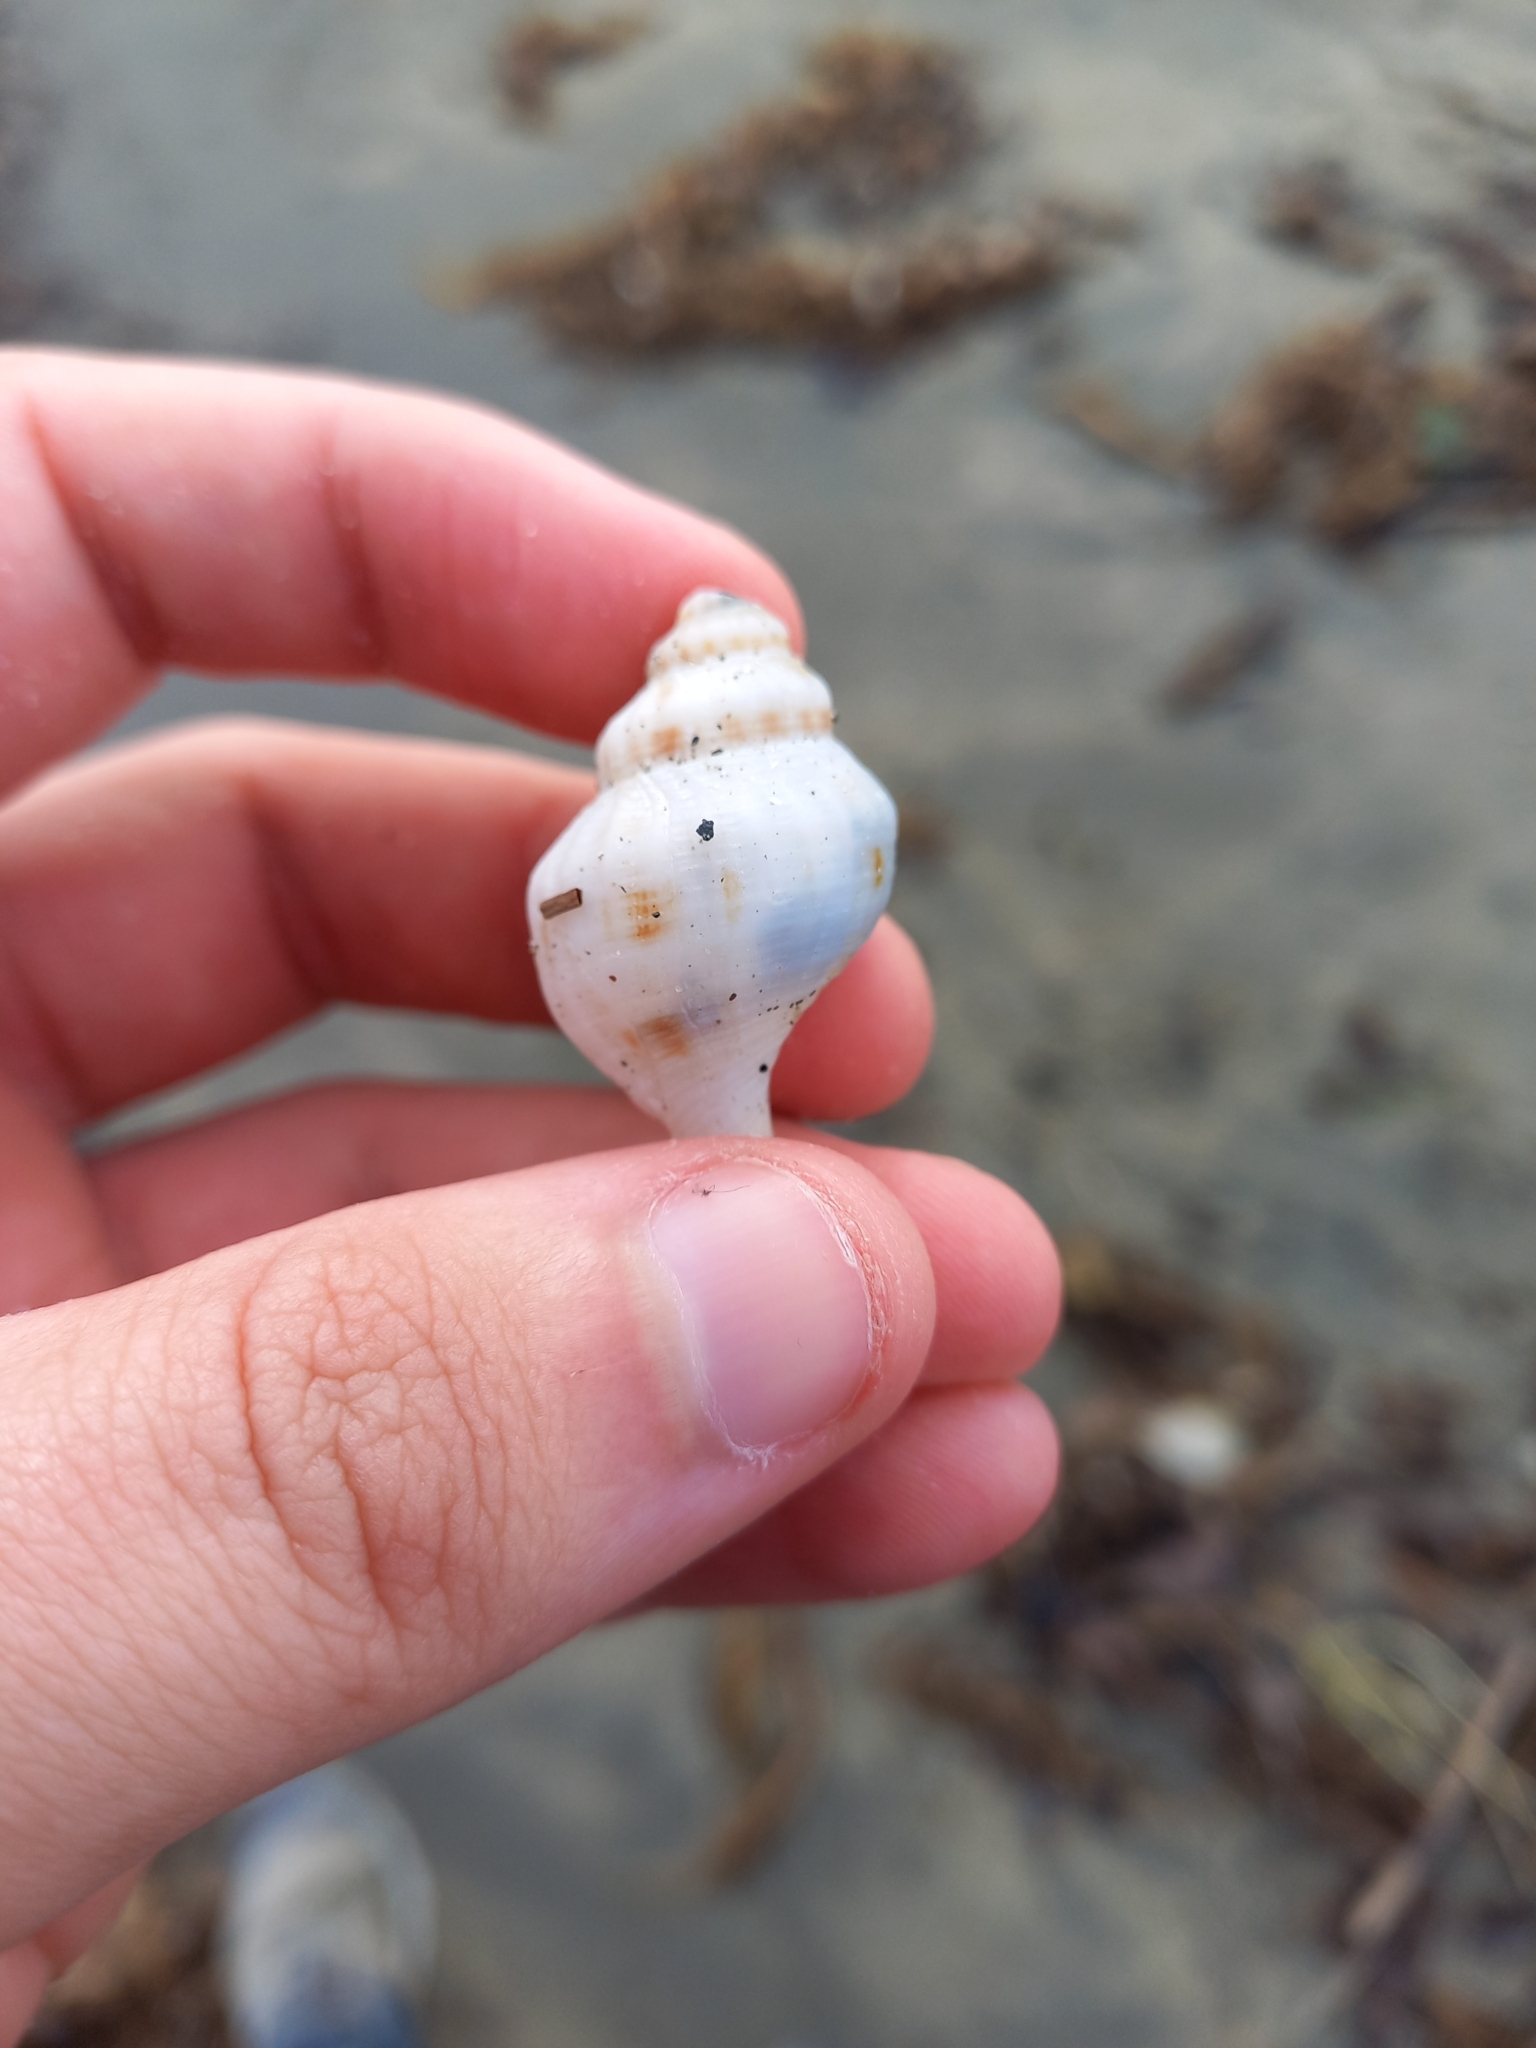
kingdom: Animalia
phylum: Mollusca
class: Gastropoda
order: Neogastropoda
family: Prosiphonidae
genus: Austrofusus
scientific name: Austrofusus glans
